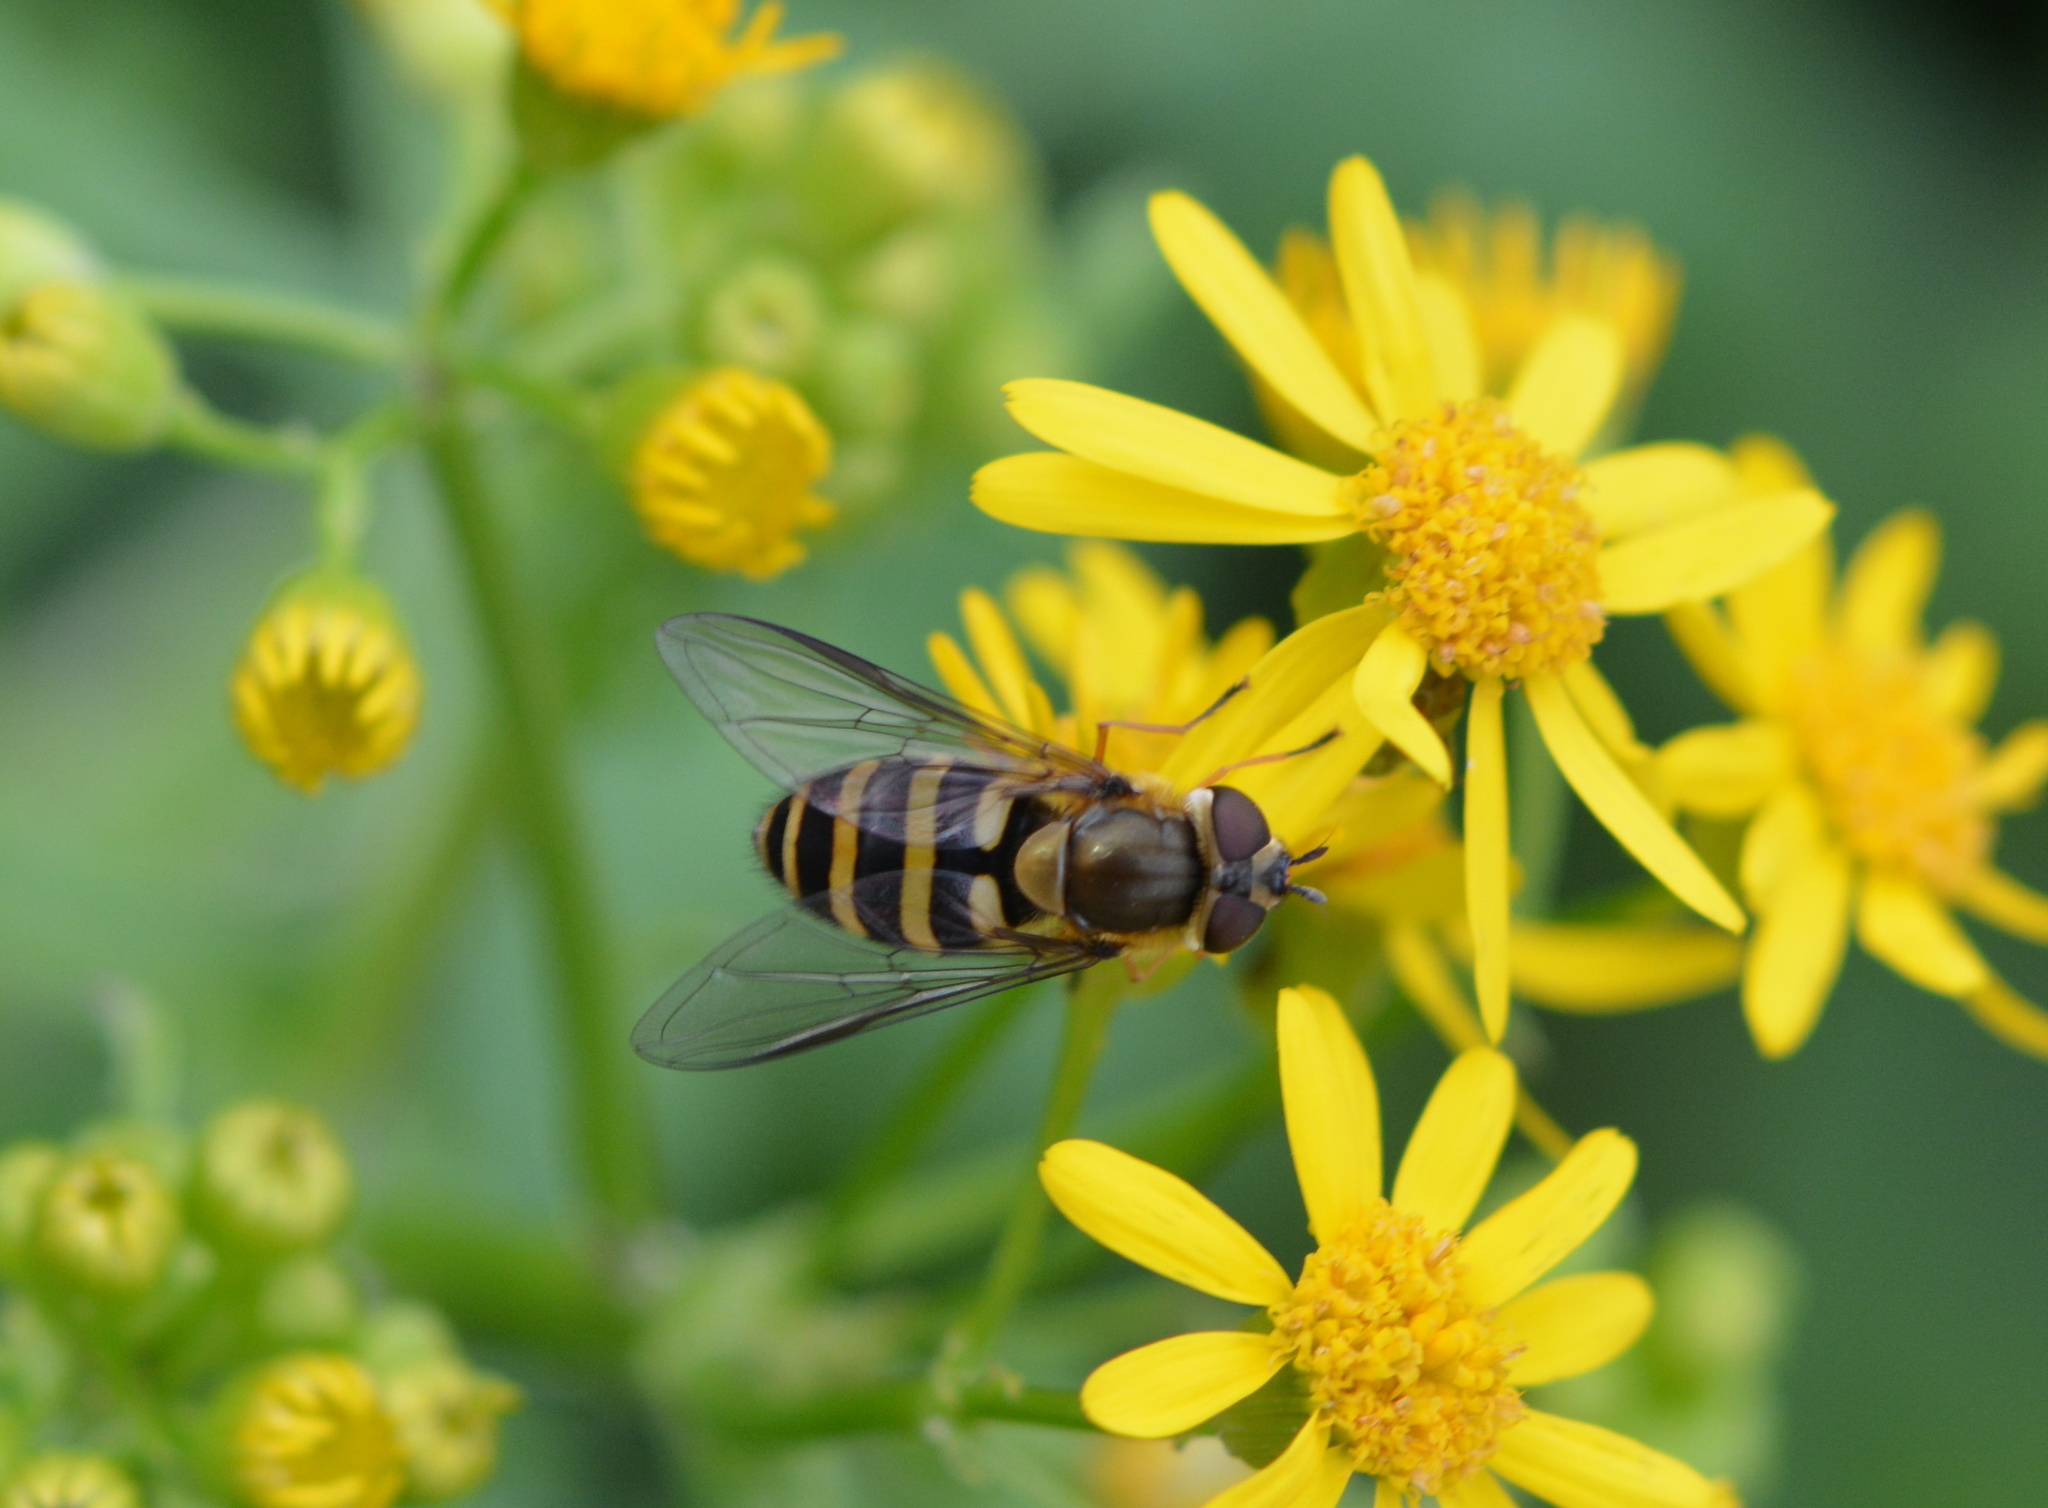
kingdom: Animalia
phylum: Arthropoda
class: Insecta
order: Diptera
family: Syrphidae
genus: Syrphus
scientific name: Syrphus
